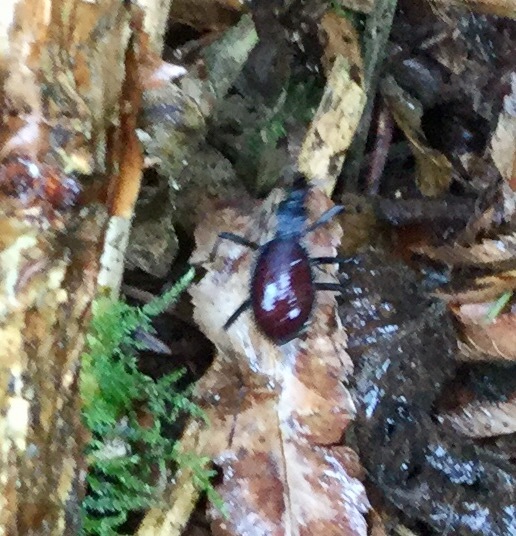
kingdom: Animalia
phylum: Arthropoda
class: Insecta
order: Coleoptera
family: Carabidae
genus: Scaphinotus
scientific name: Scaphinotus angusticollis
